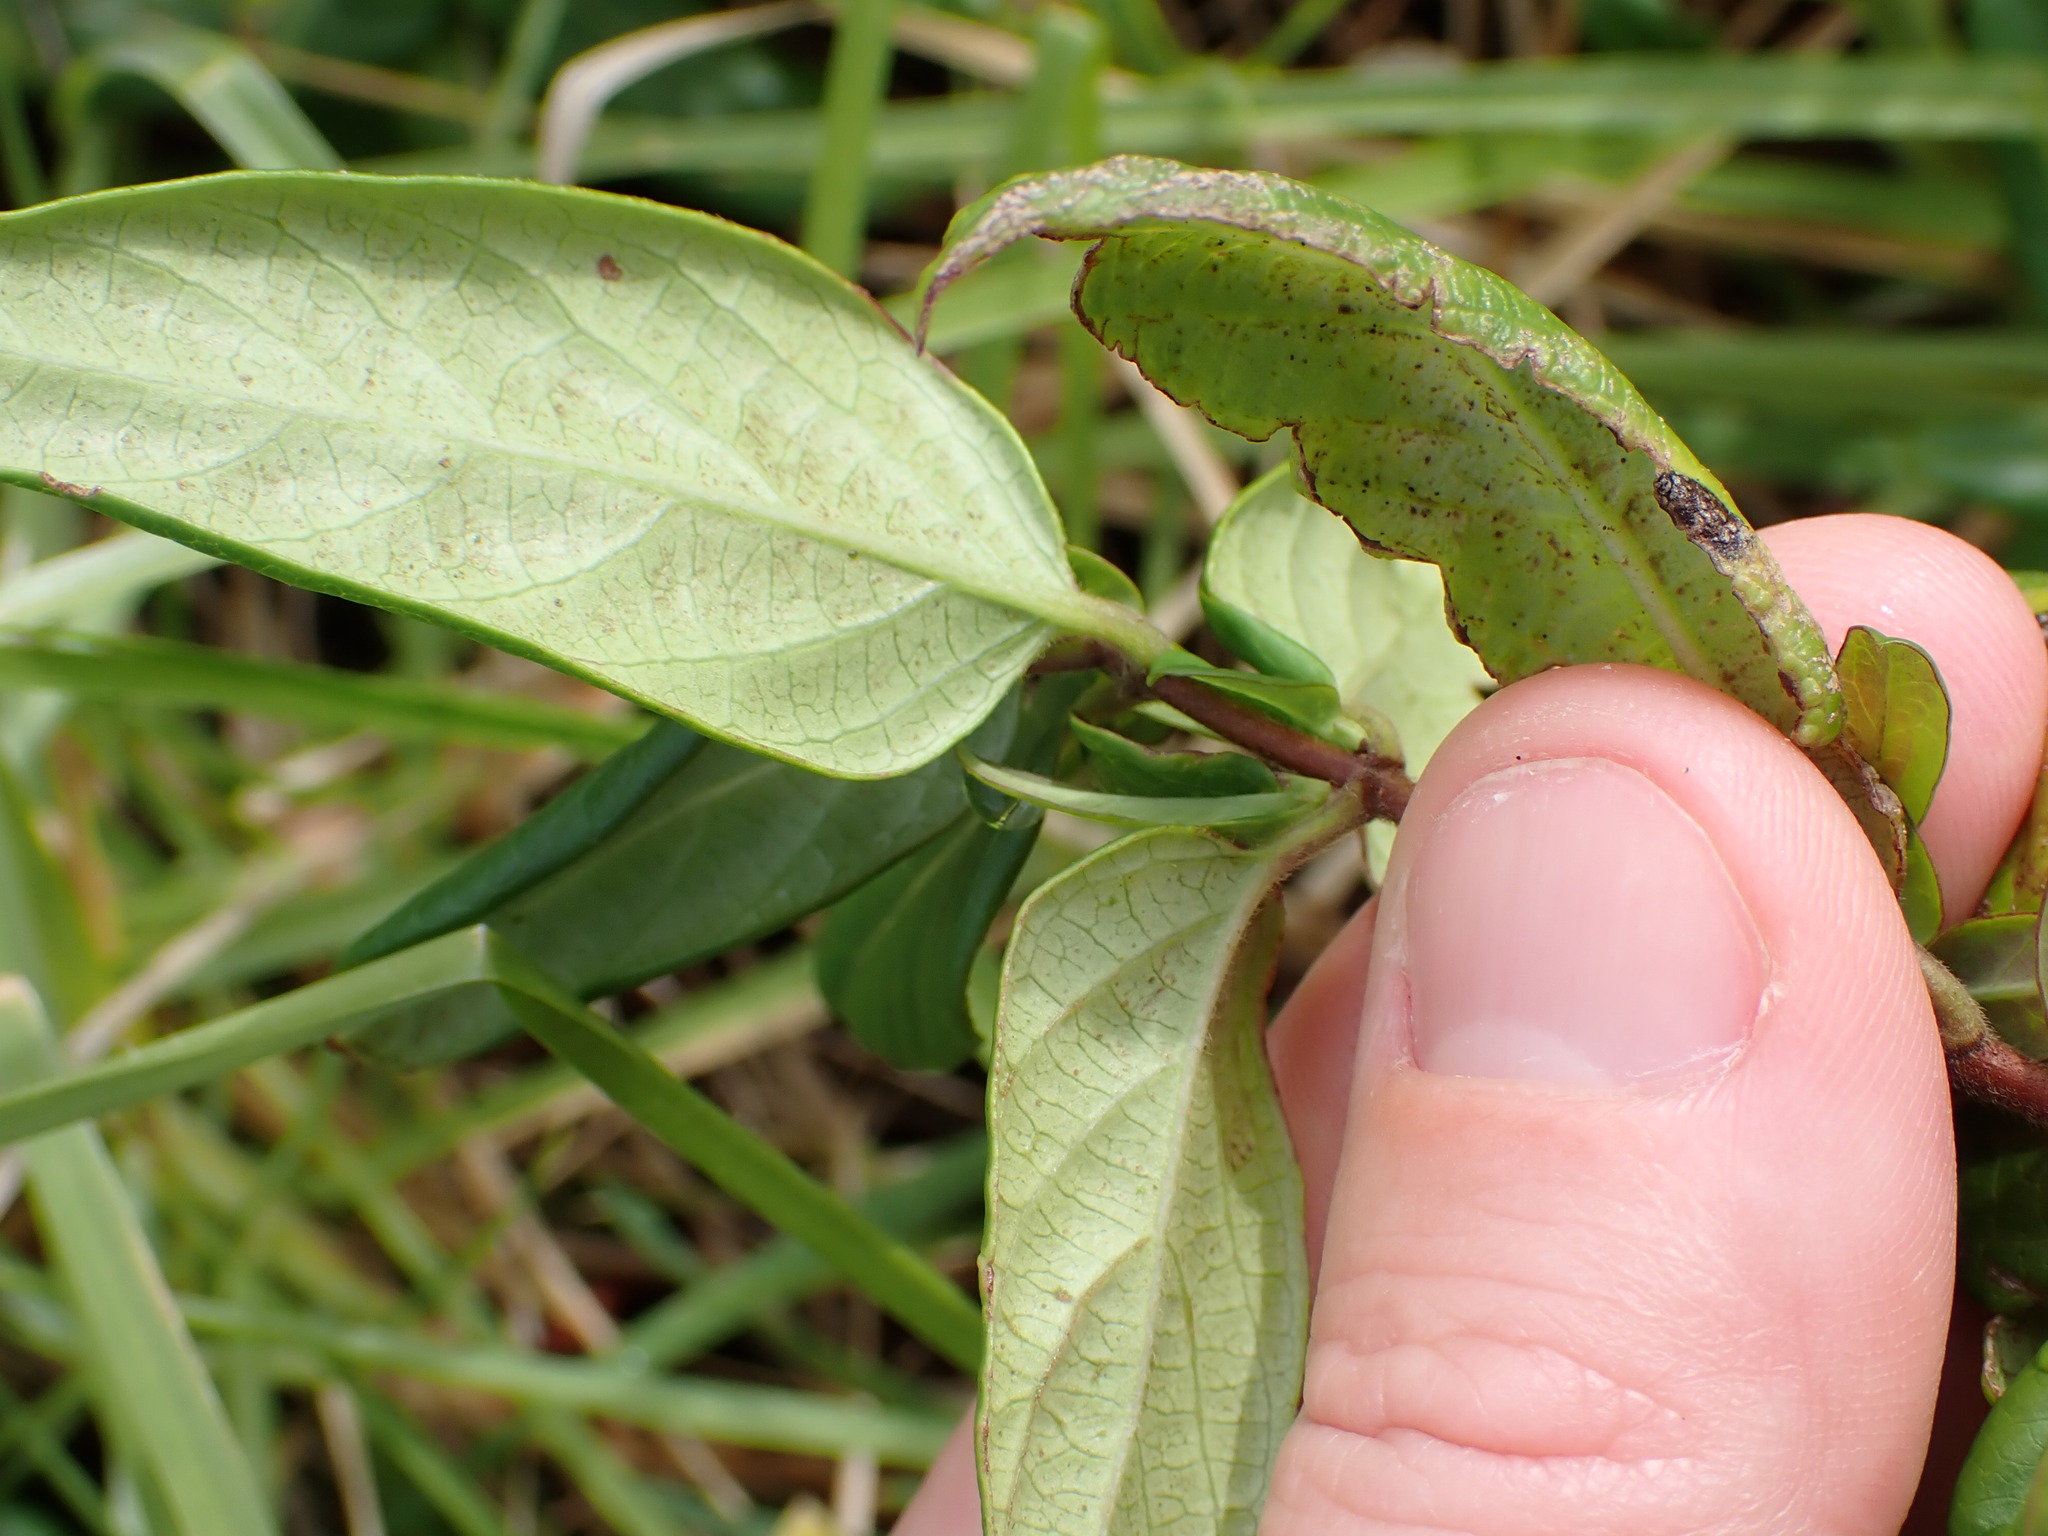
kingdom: Plantae
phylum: Tracheophyta
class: Magnoliopsida
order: Dipsacales
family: Caprifoliaceae
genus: Lonicera
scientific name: Lonicera japonica
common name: Japanese honeysuckle
